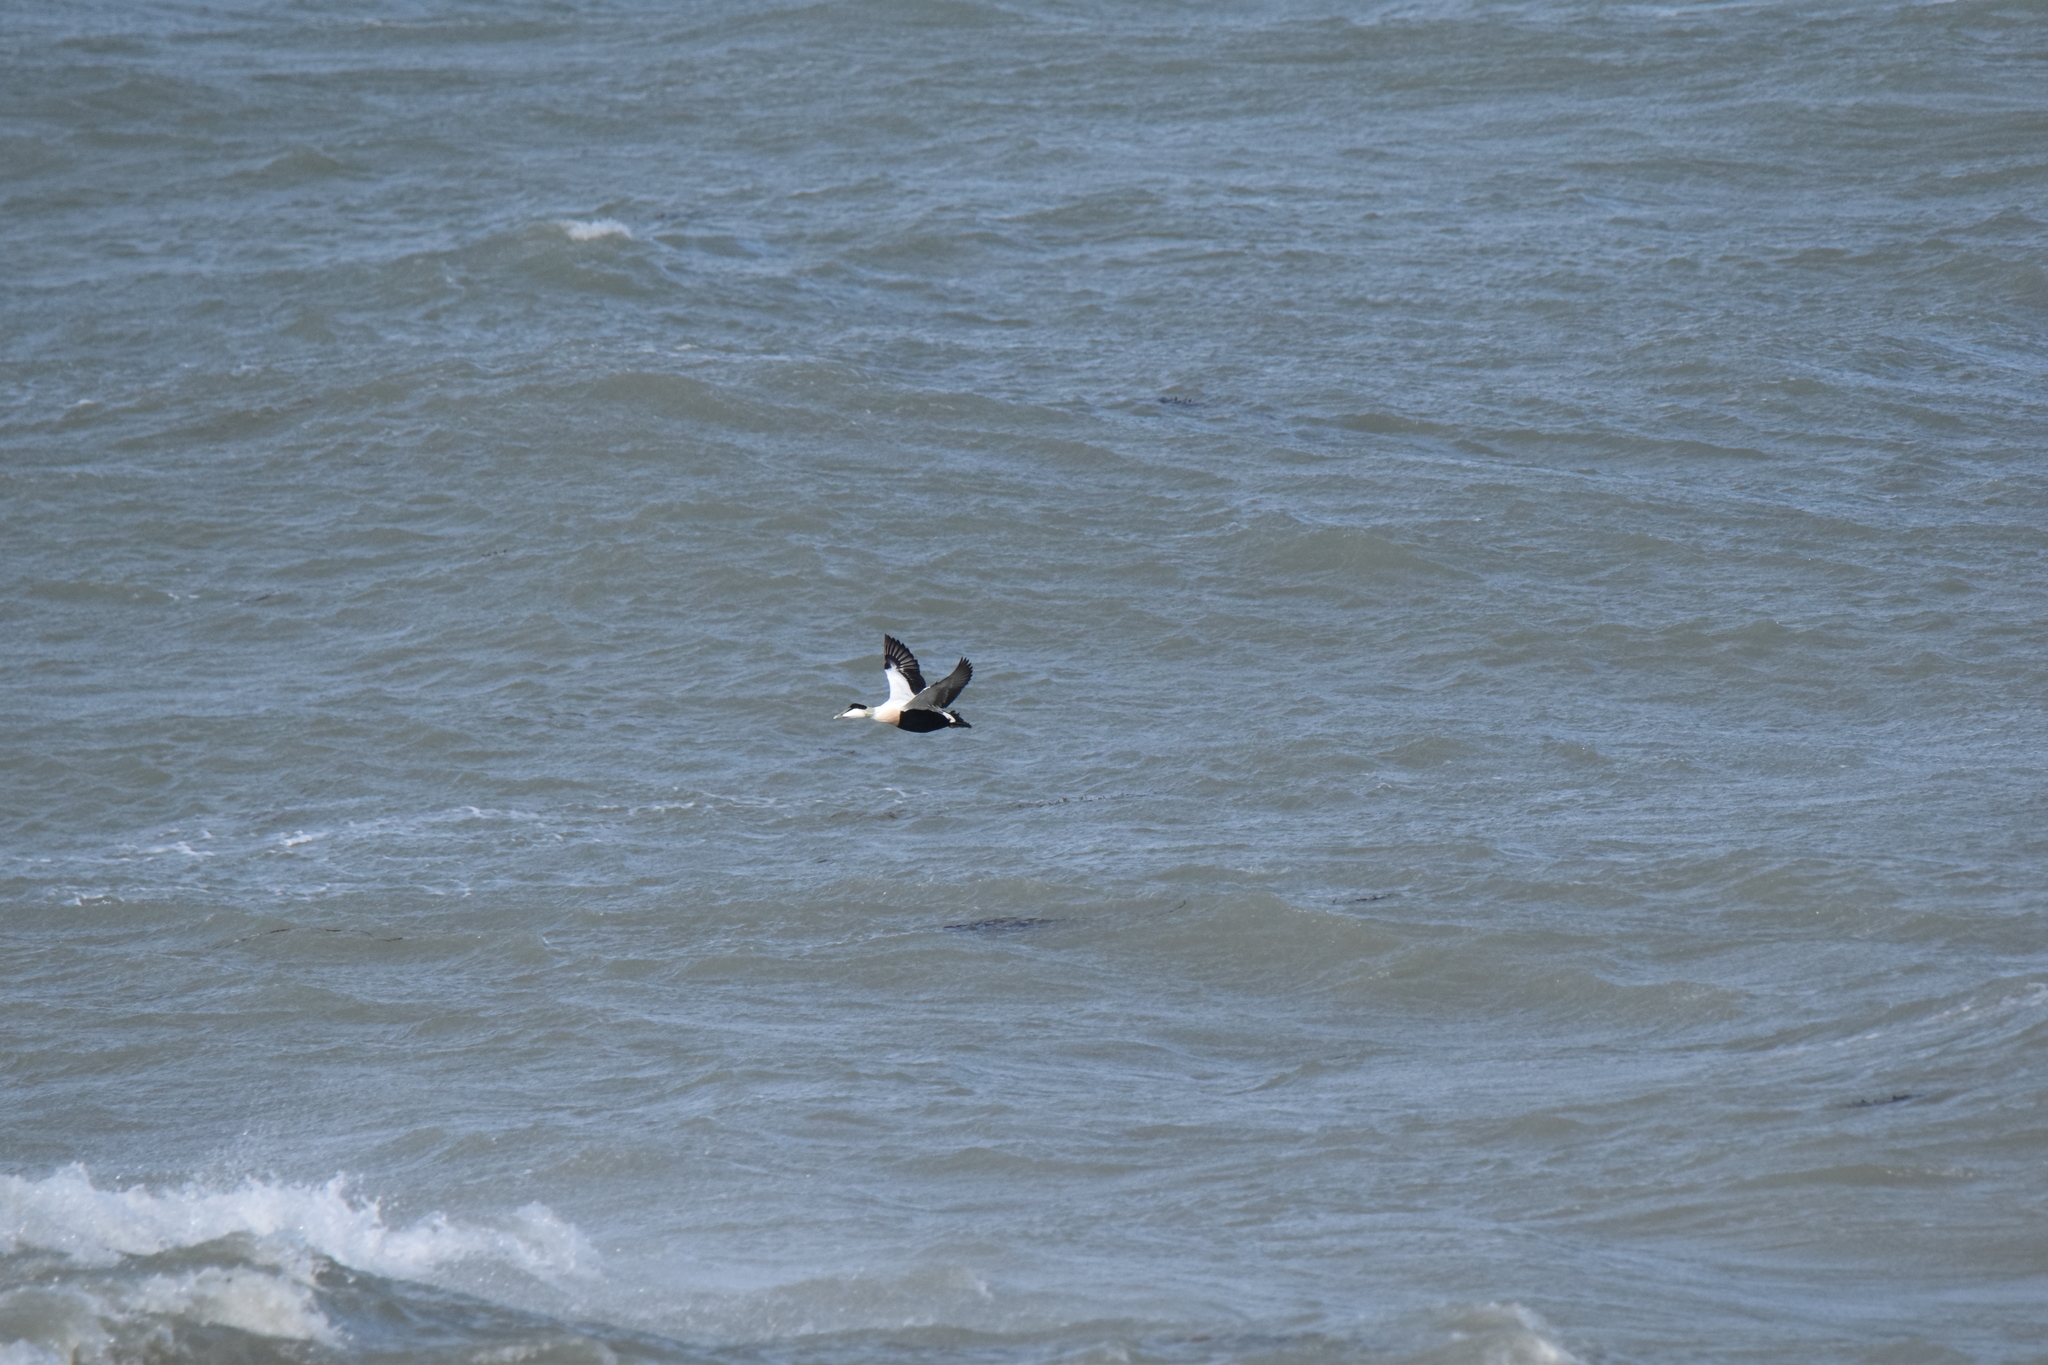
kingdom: Animalia
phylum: Chordata
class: Aves
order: Anseriformes
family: Anatidae
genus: Somateria
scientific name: Somateria mollissima
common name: Common eider
